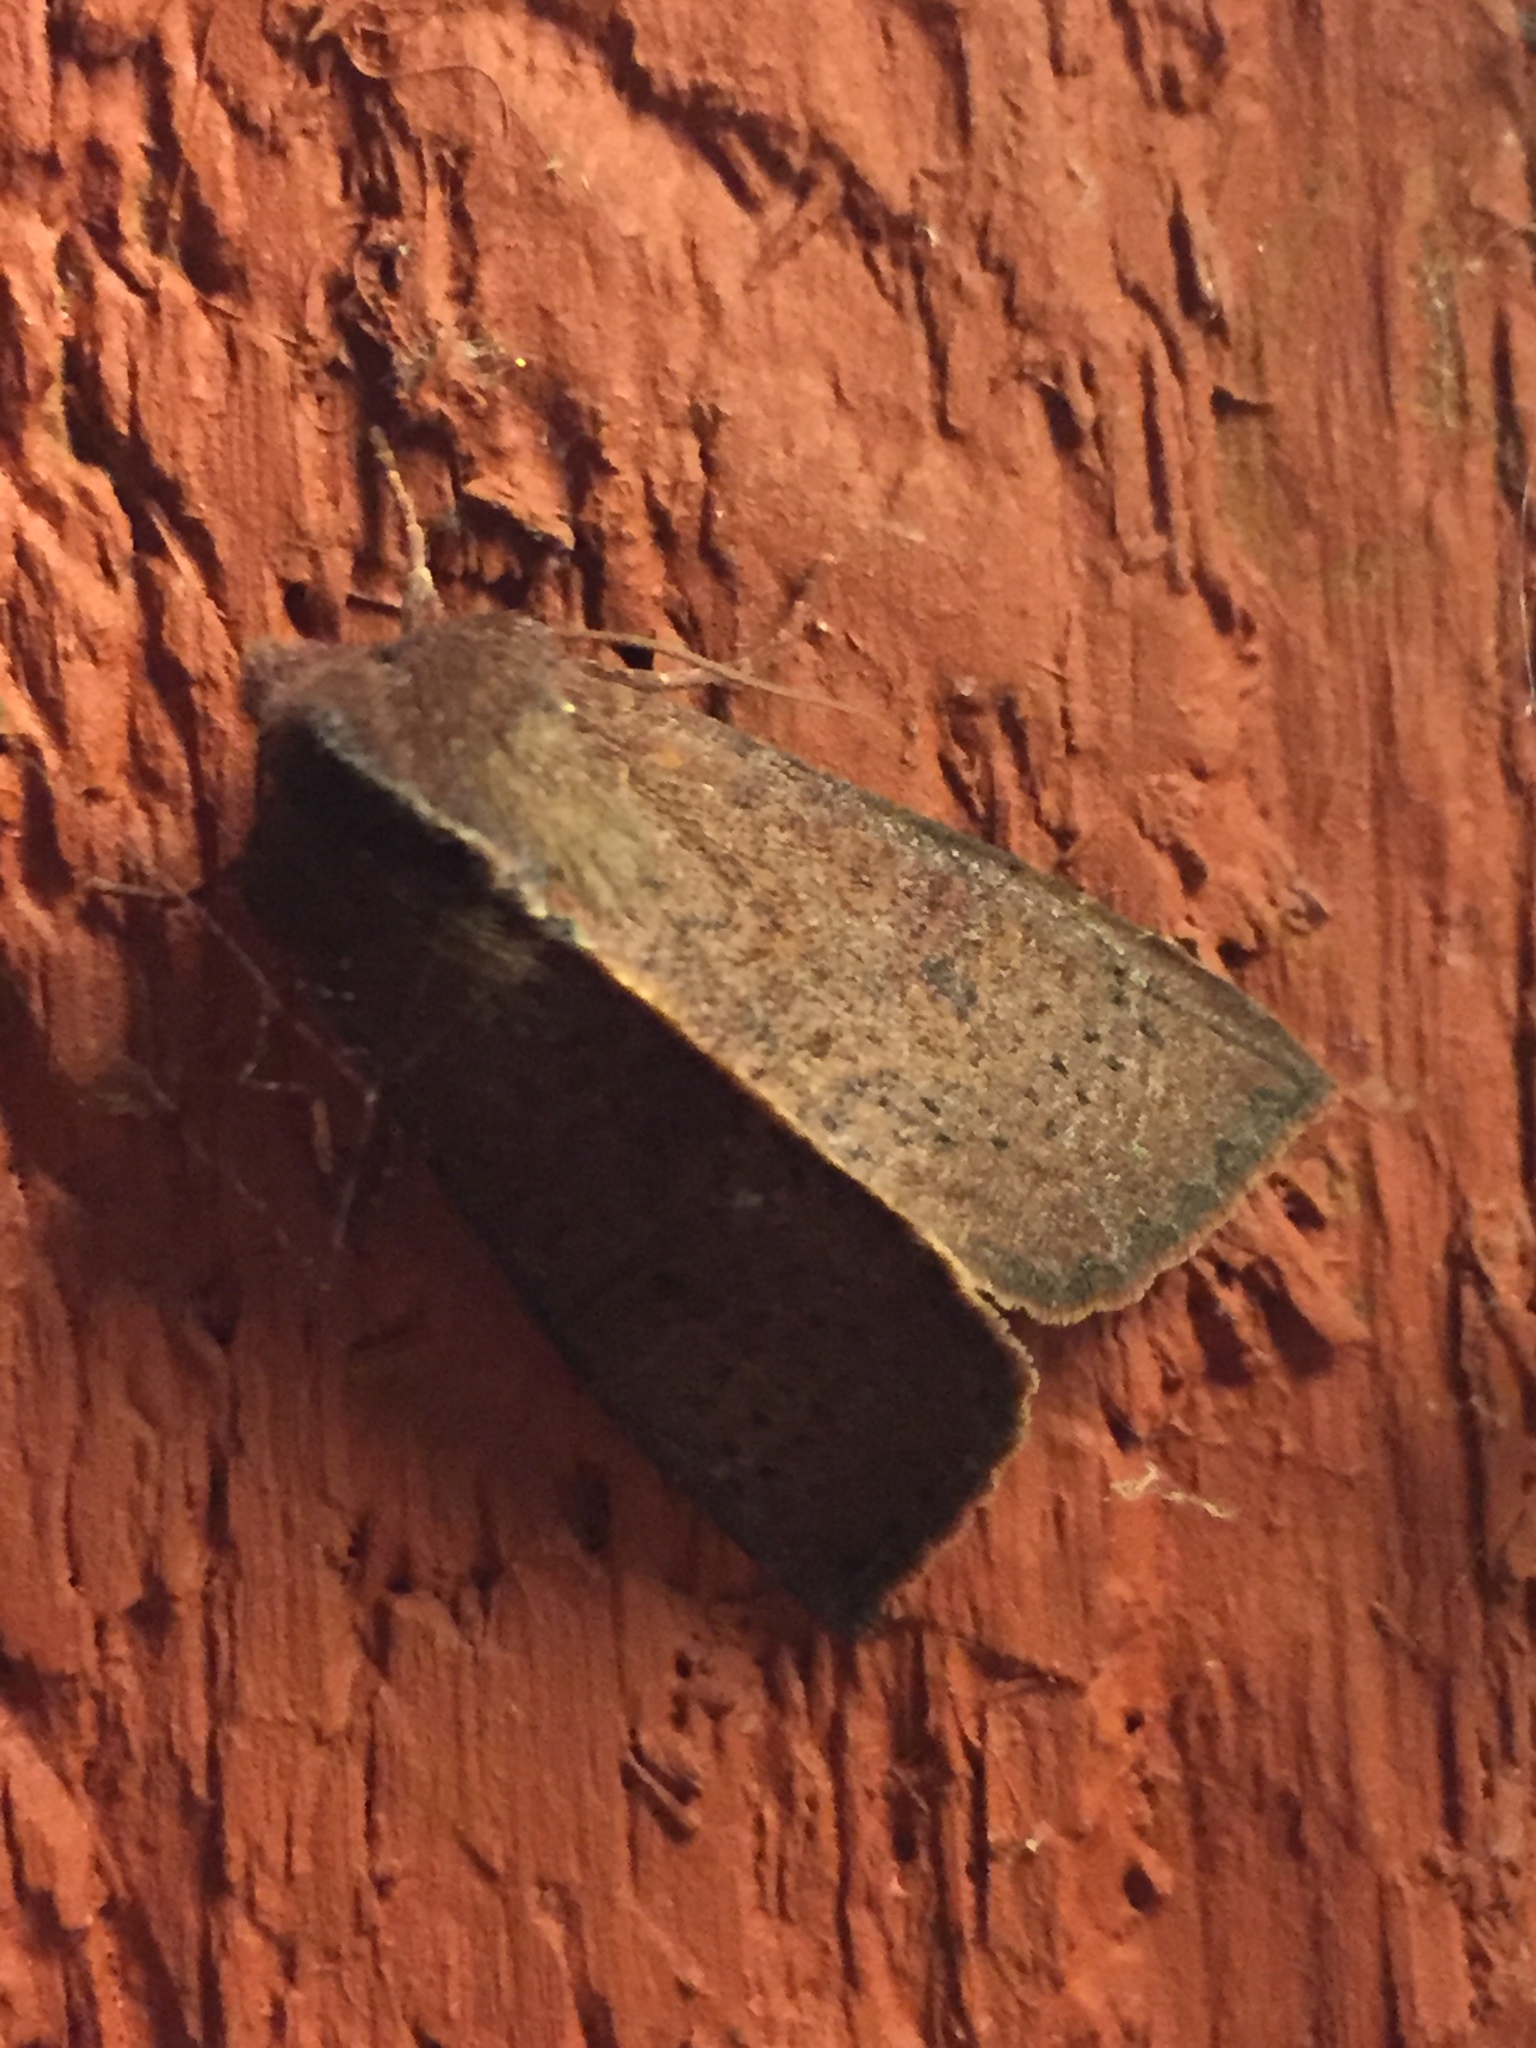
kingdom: Animalia
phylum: Arthropoda
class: Insecta
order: Lepidoptera
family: Noctuidae
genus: Orthosia
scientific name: Orthosia transparens
